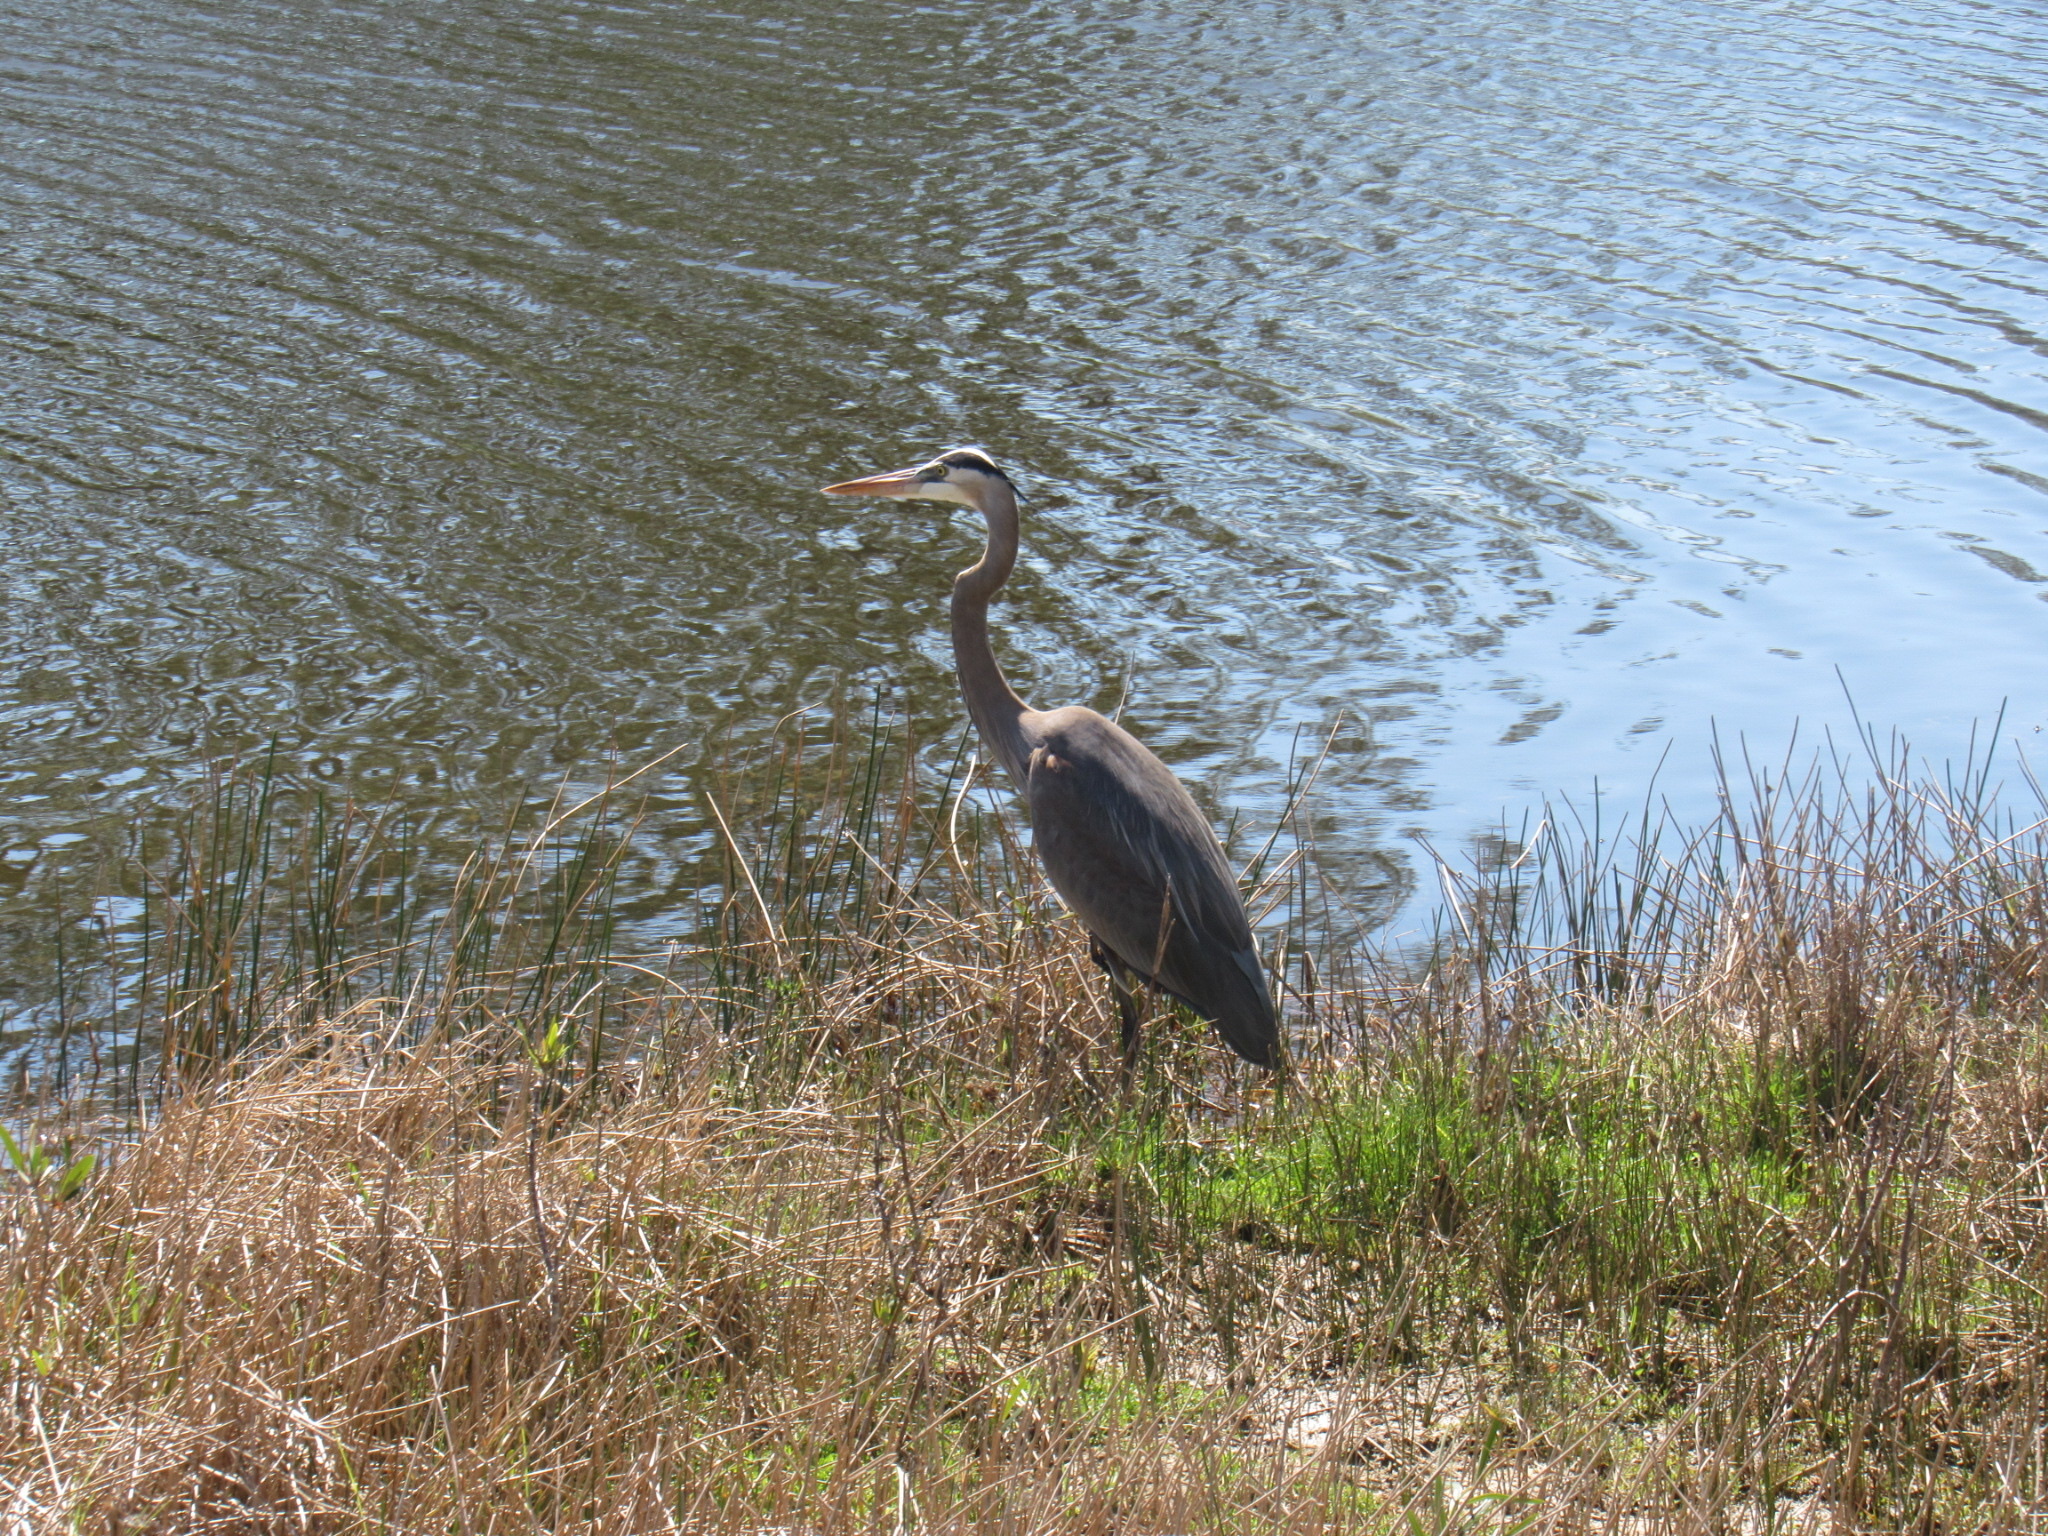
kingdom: Animalia
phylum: Chordata
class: Aves
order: Pelecaniformes
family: Ardeidae
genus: Ardea
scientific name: Ardea herodias
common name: Great blue heron
